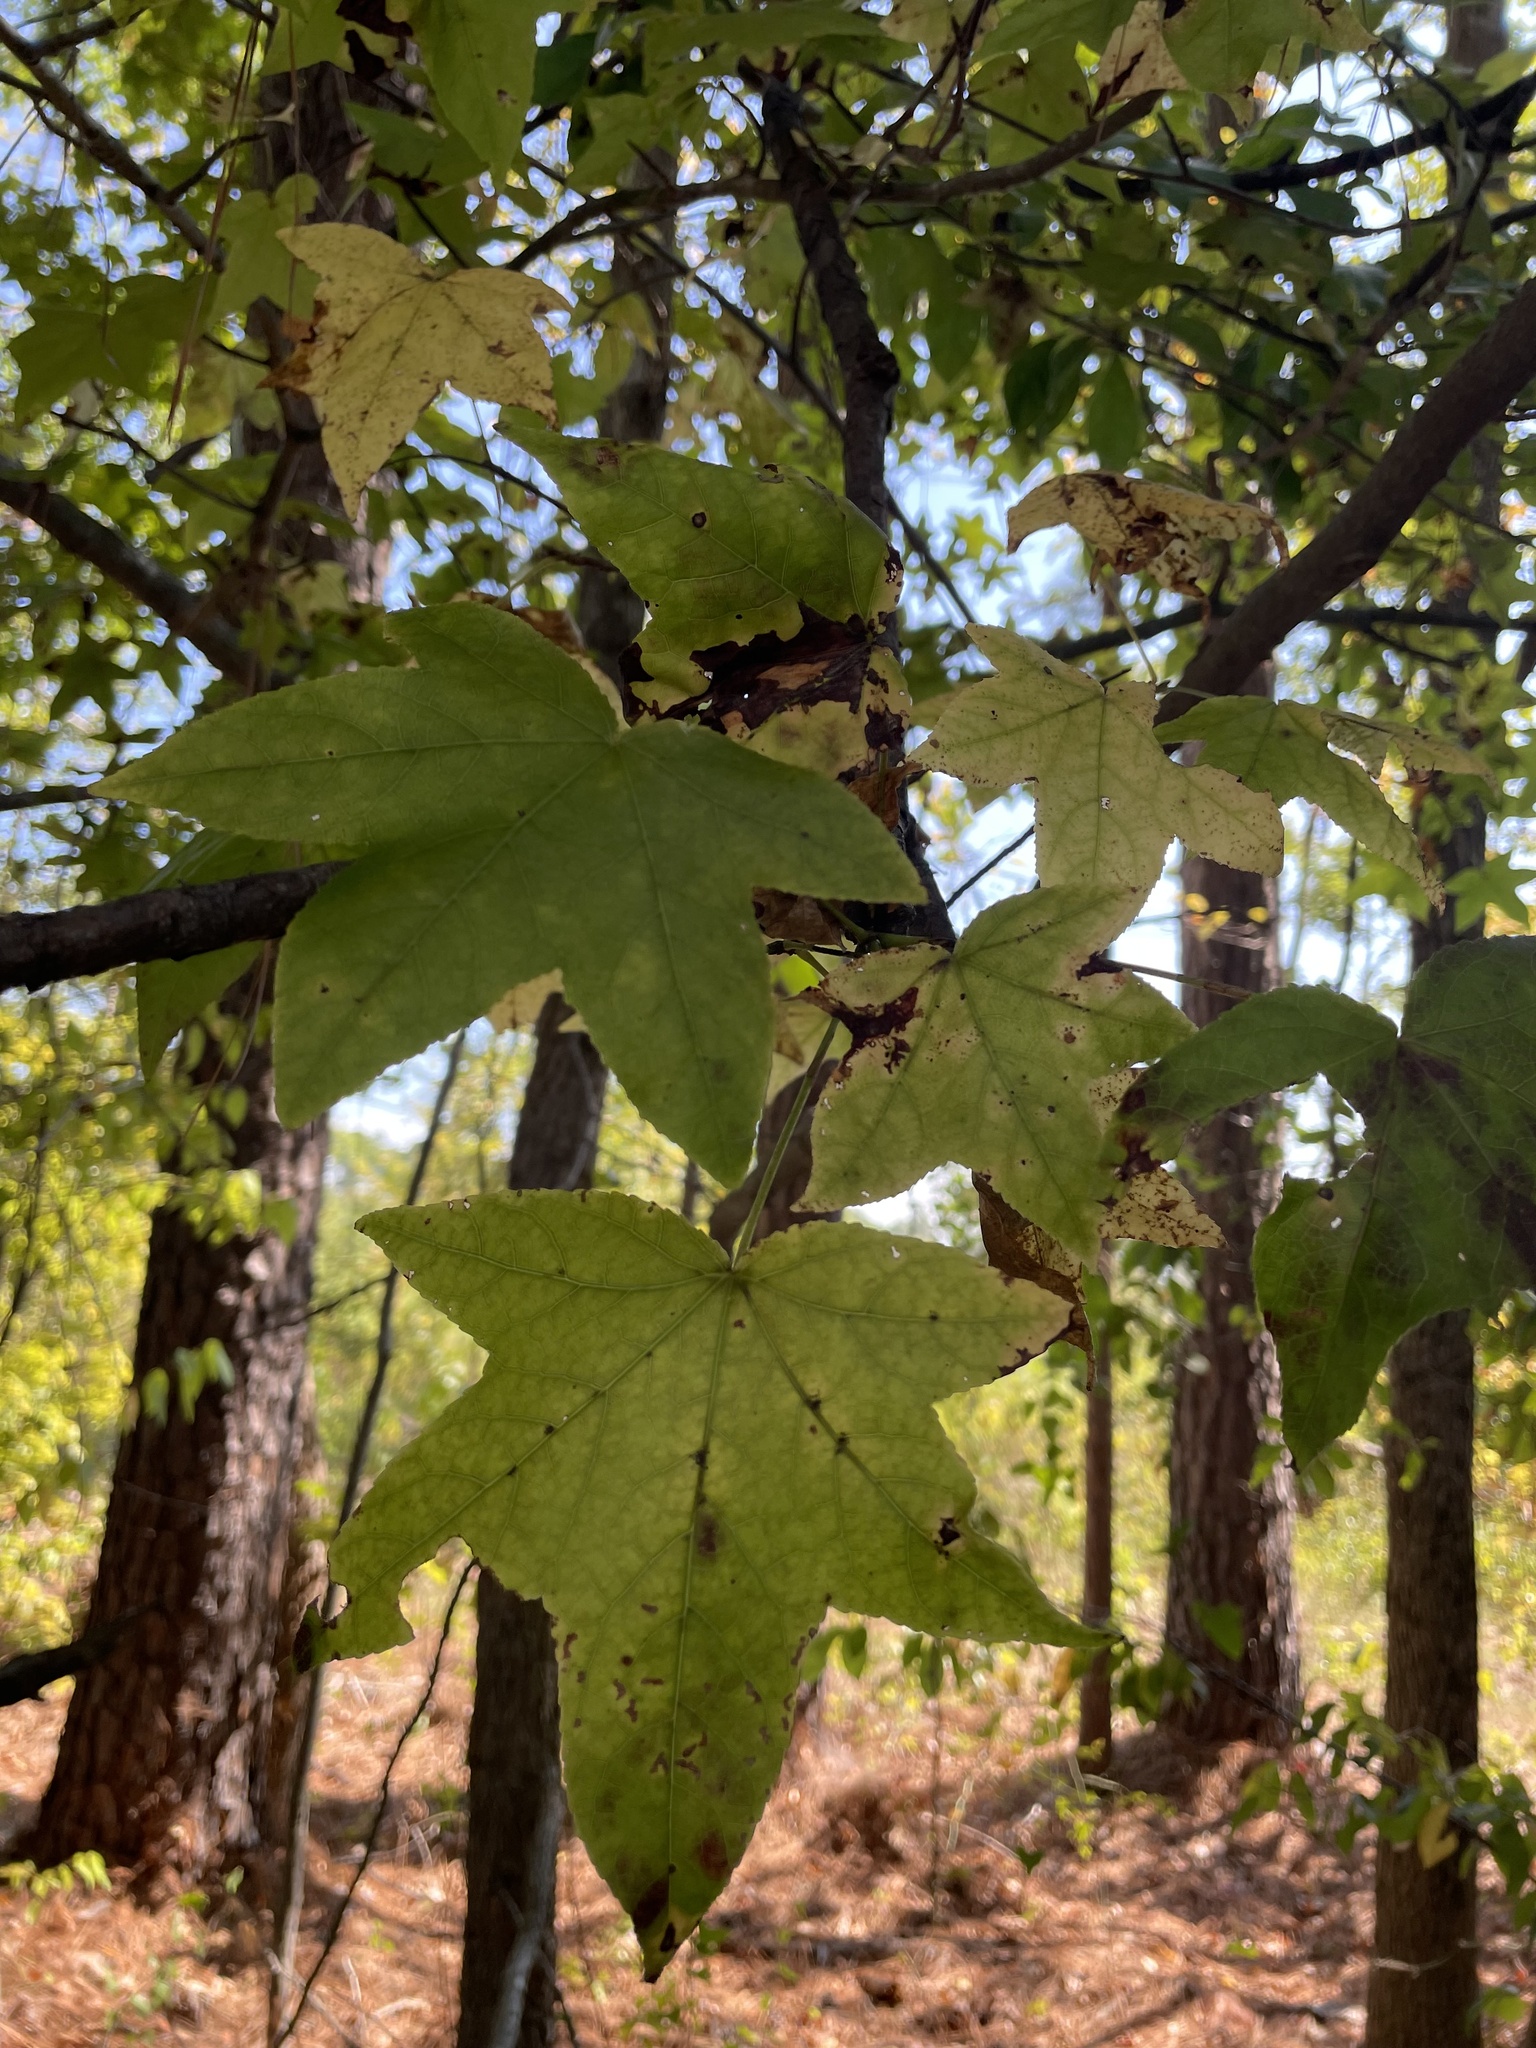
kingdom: Plantae
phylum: Tracheophyta
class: Magnoliopsida
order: Saxifragales
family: Altingiaceae
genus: Liquidambar
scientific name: Liquidambar styraciflua
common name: Sweet gum
